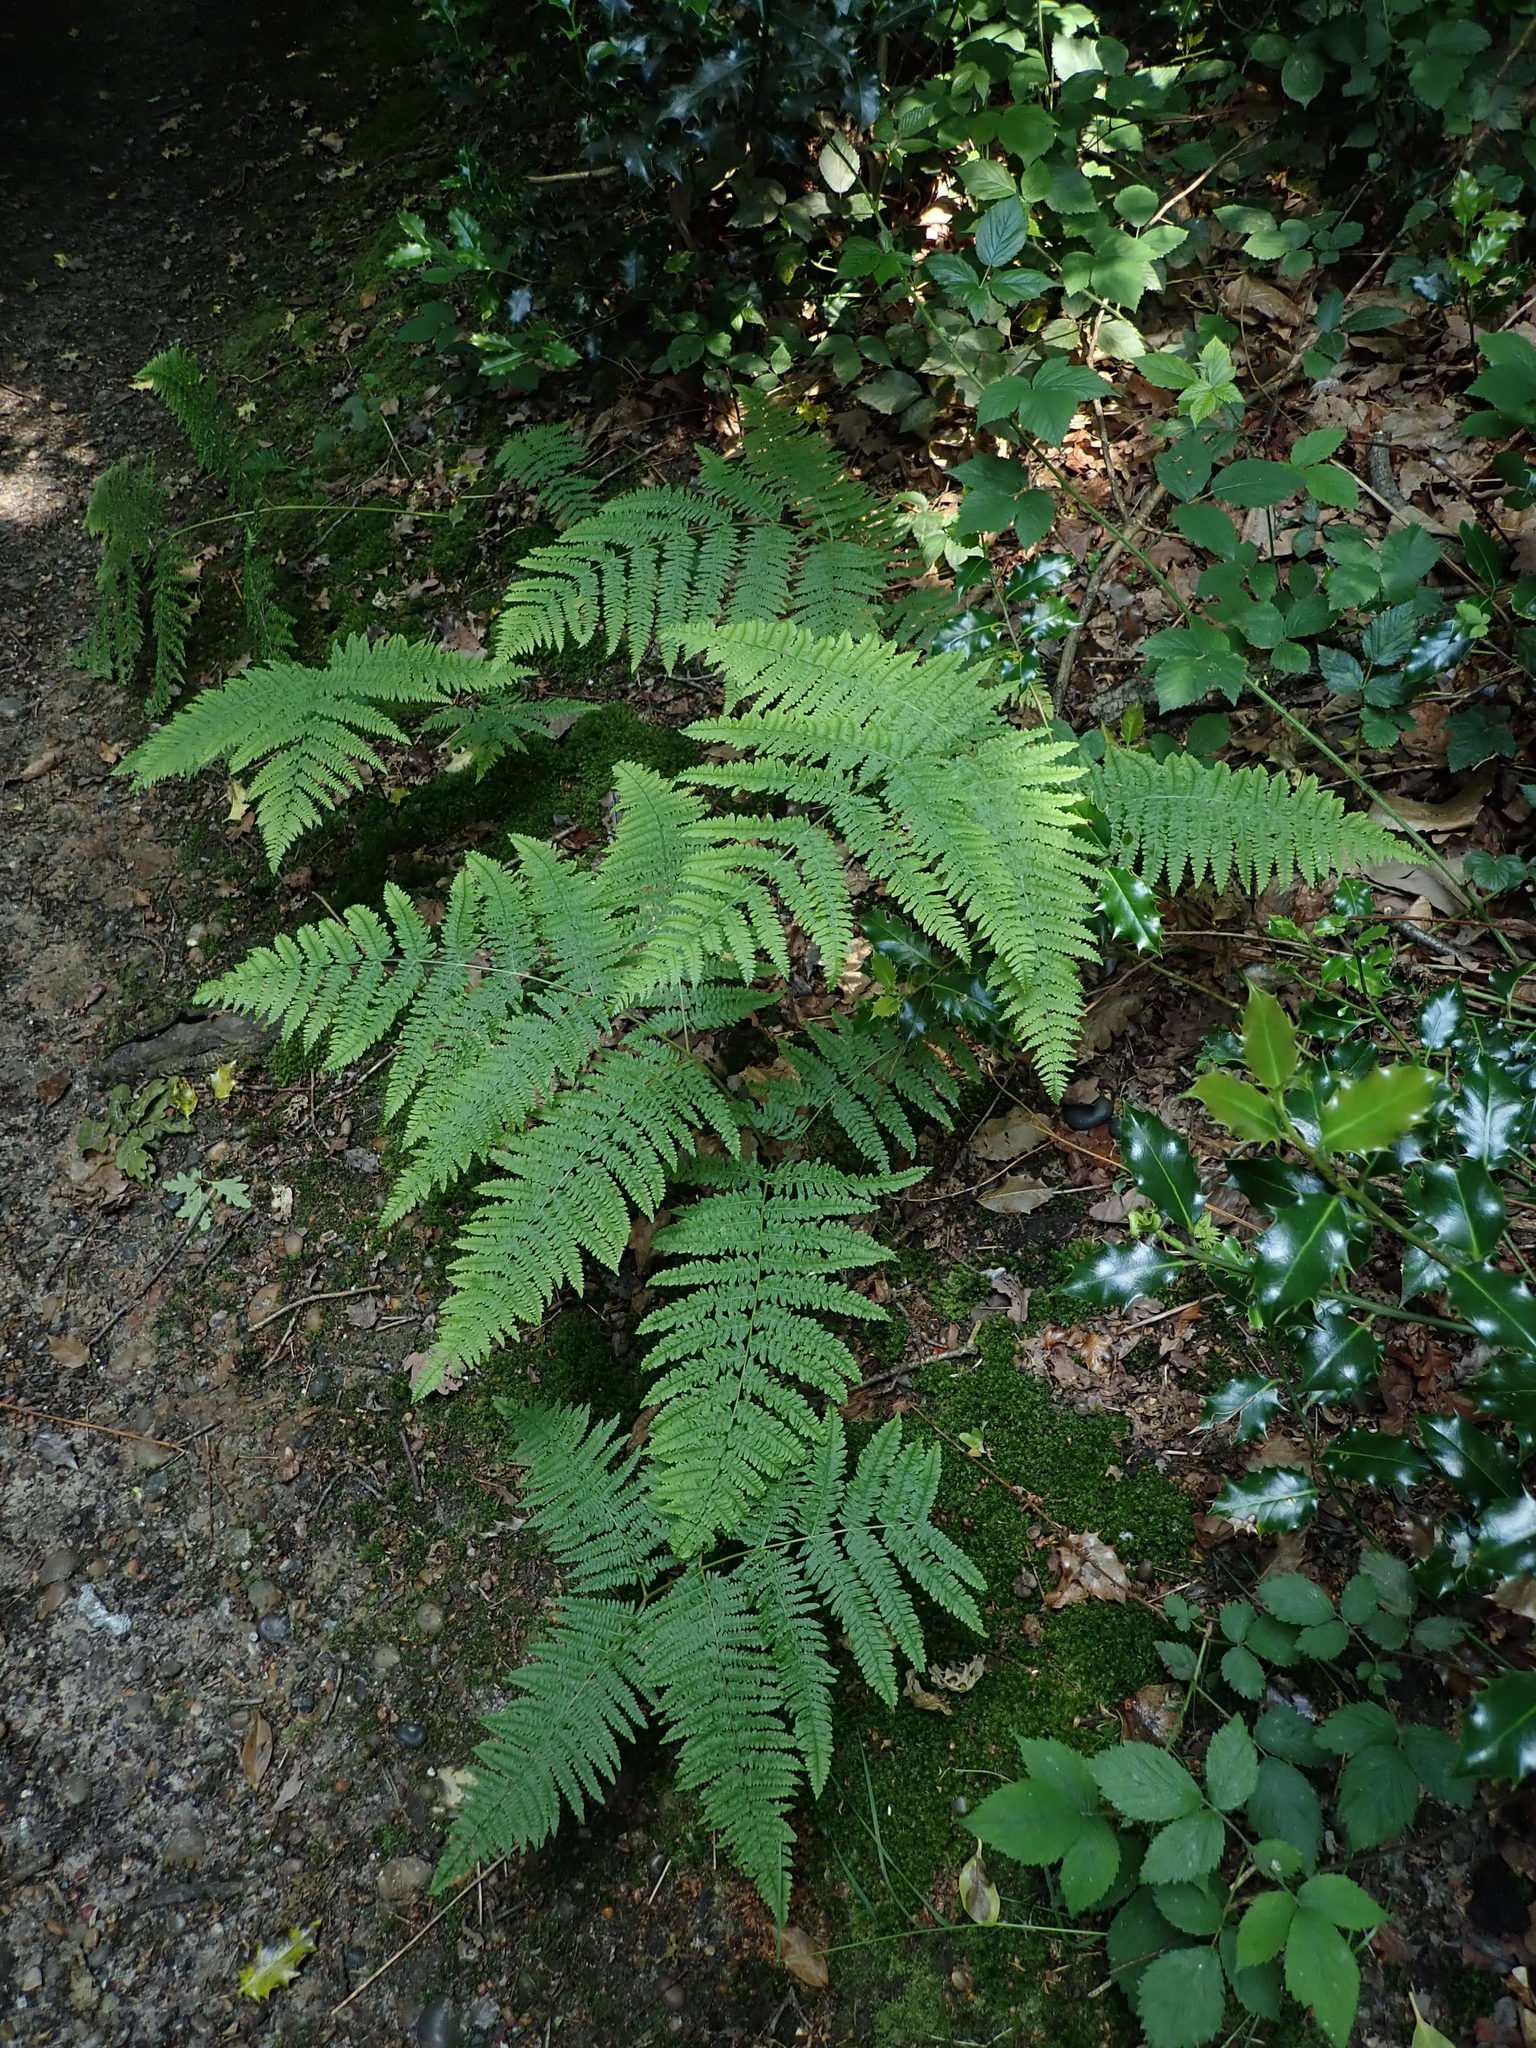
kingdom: Plantae
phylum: Tracheophyta
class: Polypodiopsida
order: Polypodiales
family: Dennstaedtiaceae
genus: Pteridium
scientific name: Pteridium aquilinum
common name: Bracken
